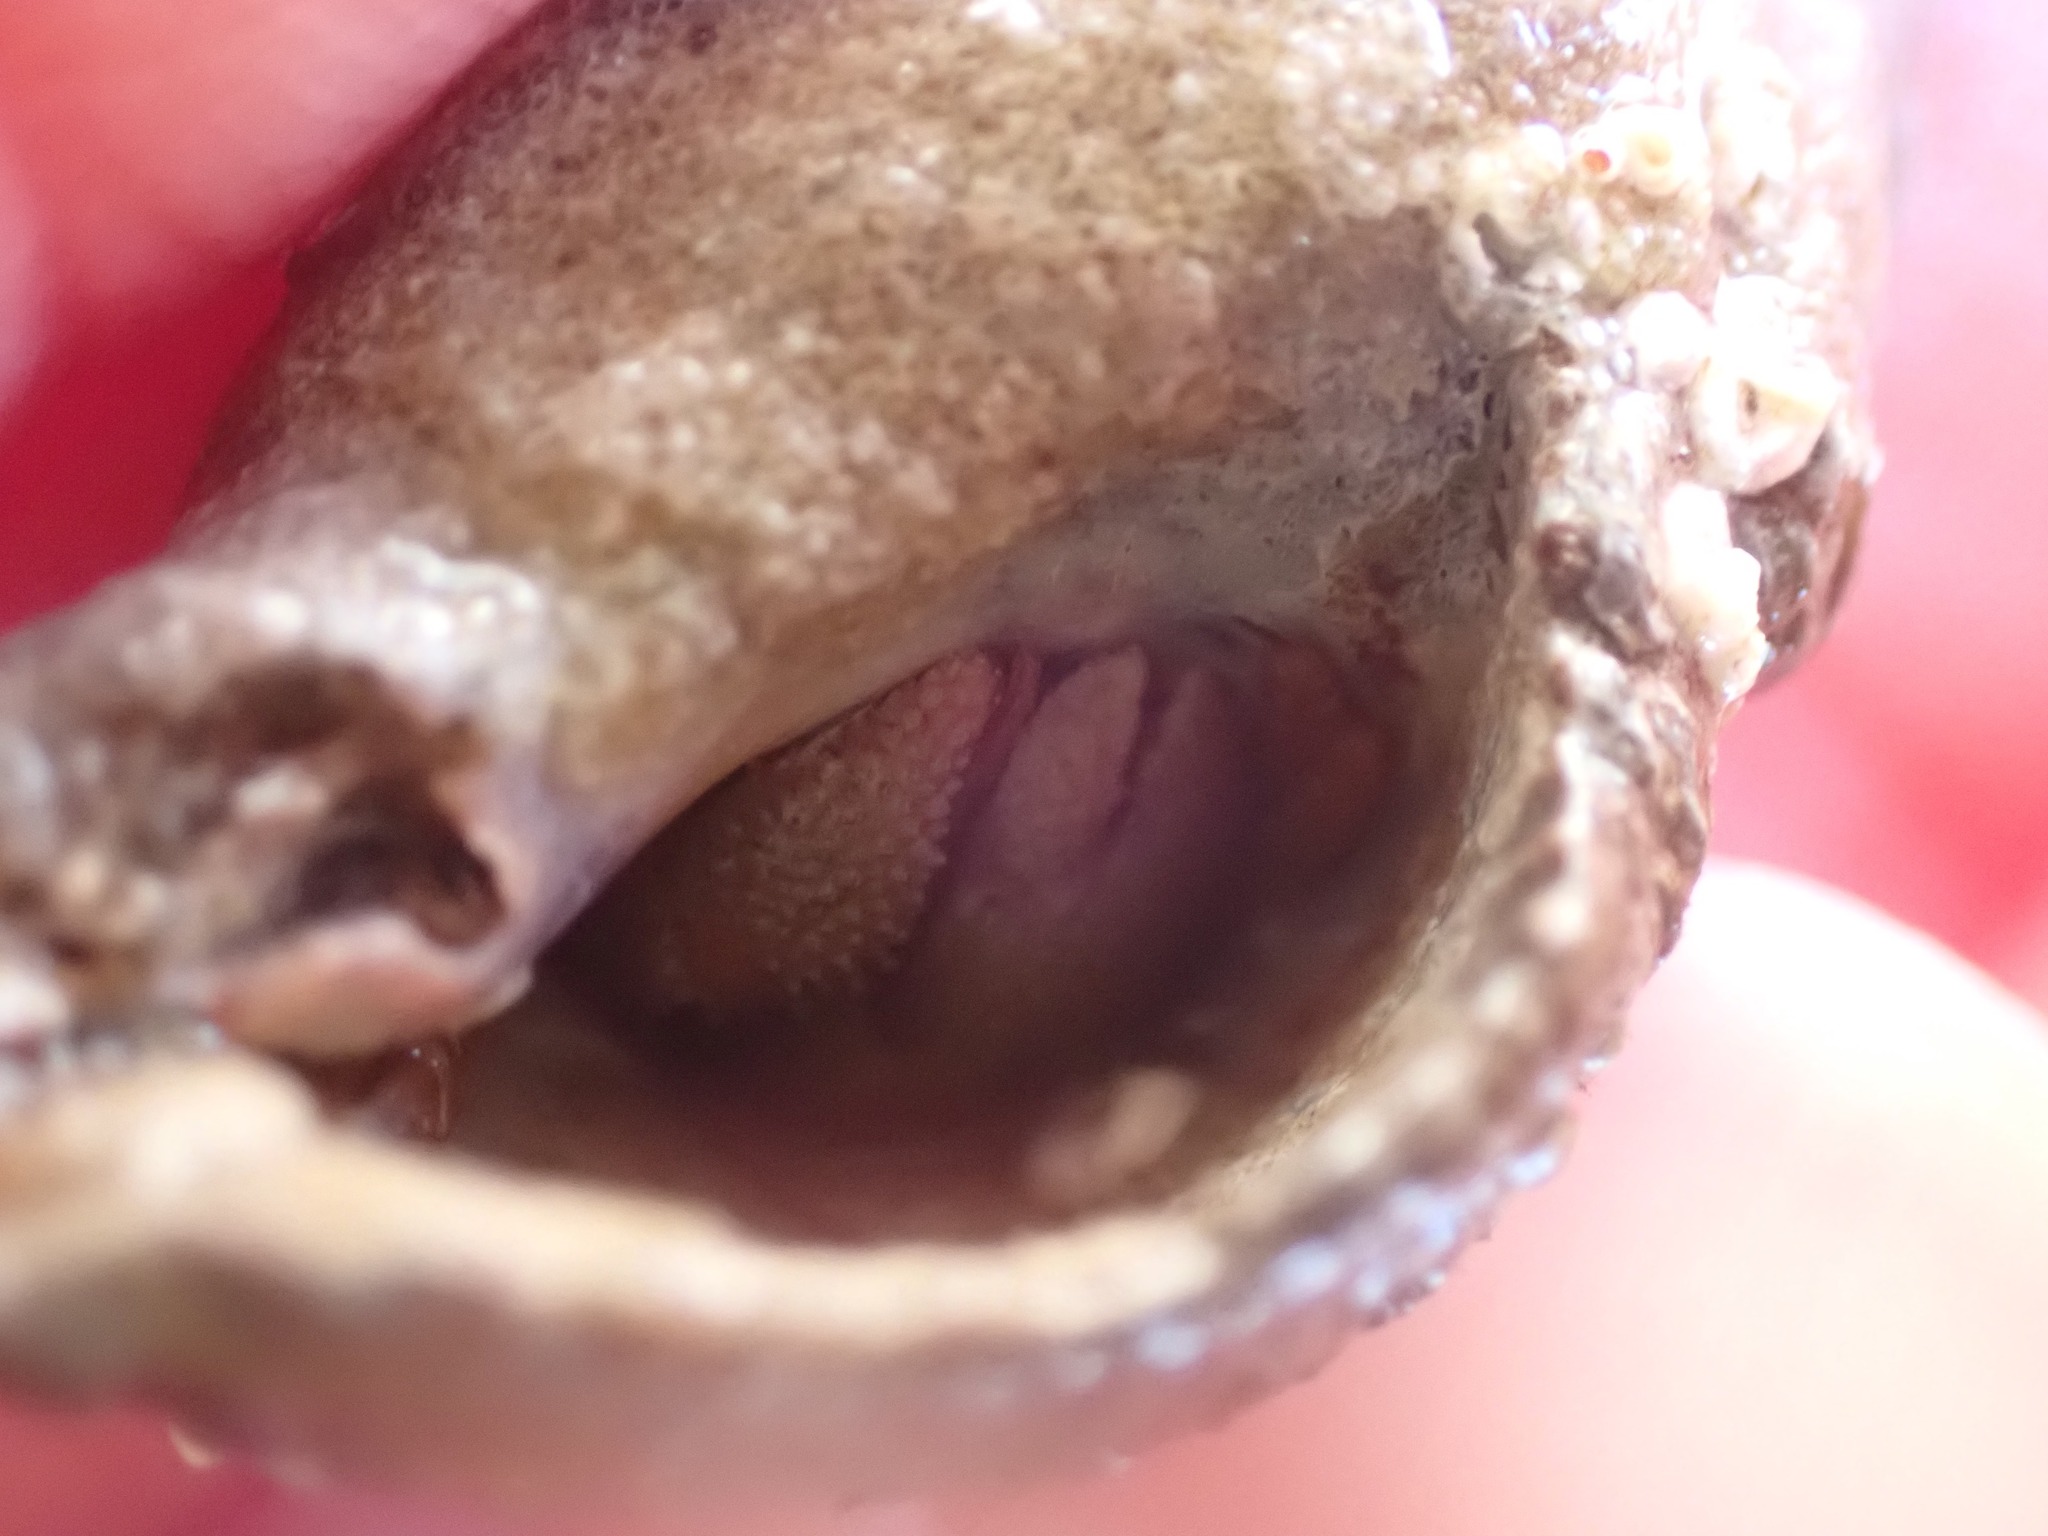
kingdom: Animalia
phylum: Arthropoda
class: Malacostraca
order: Decapoda
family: Paguridae
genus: Pagurus
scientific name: Pagurus granosimanus
